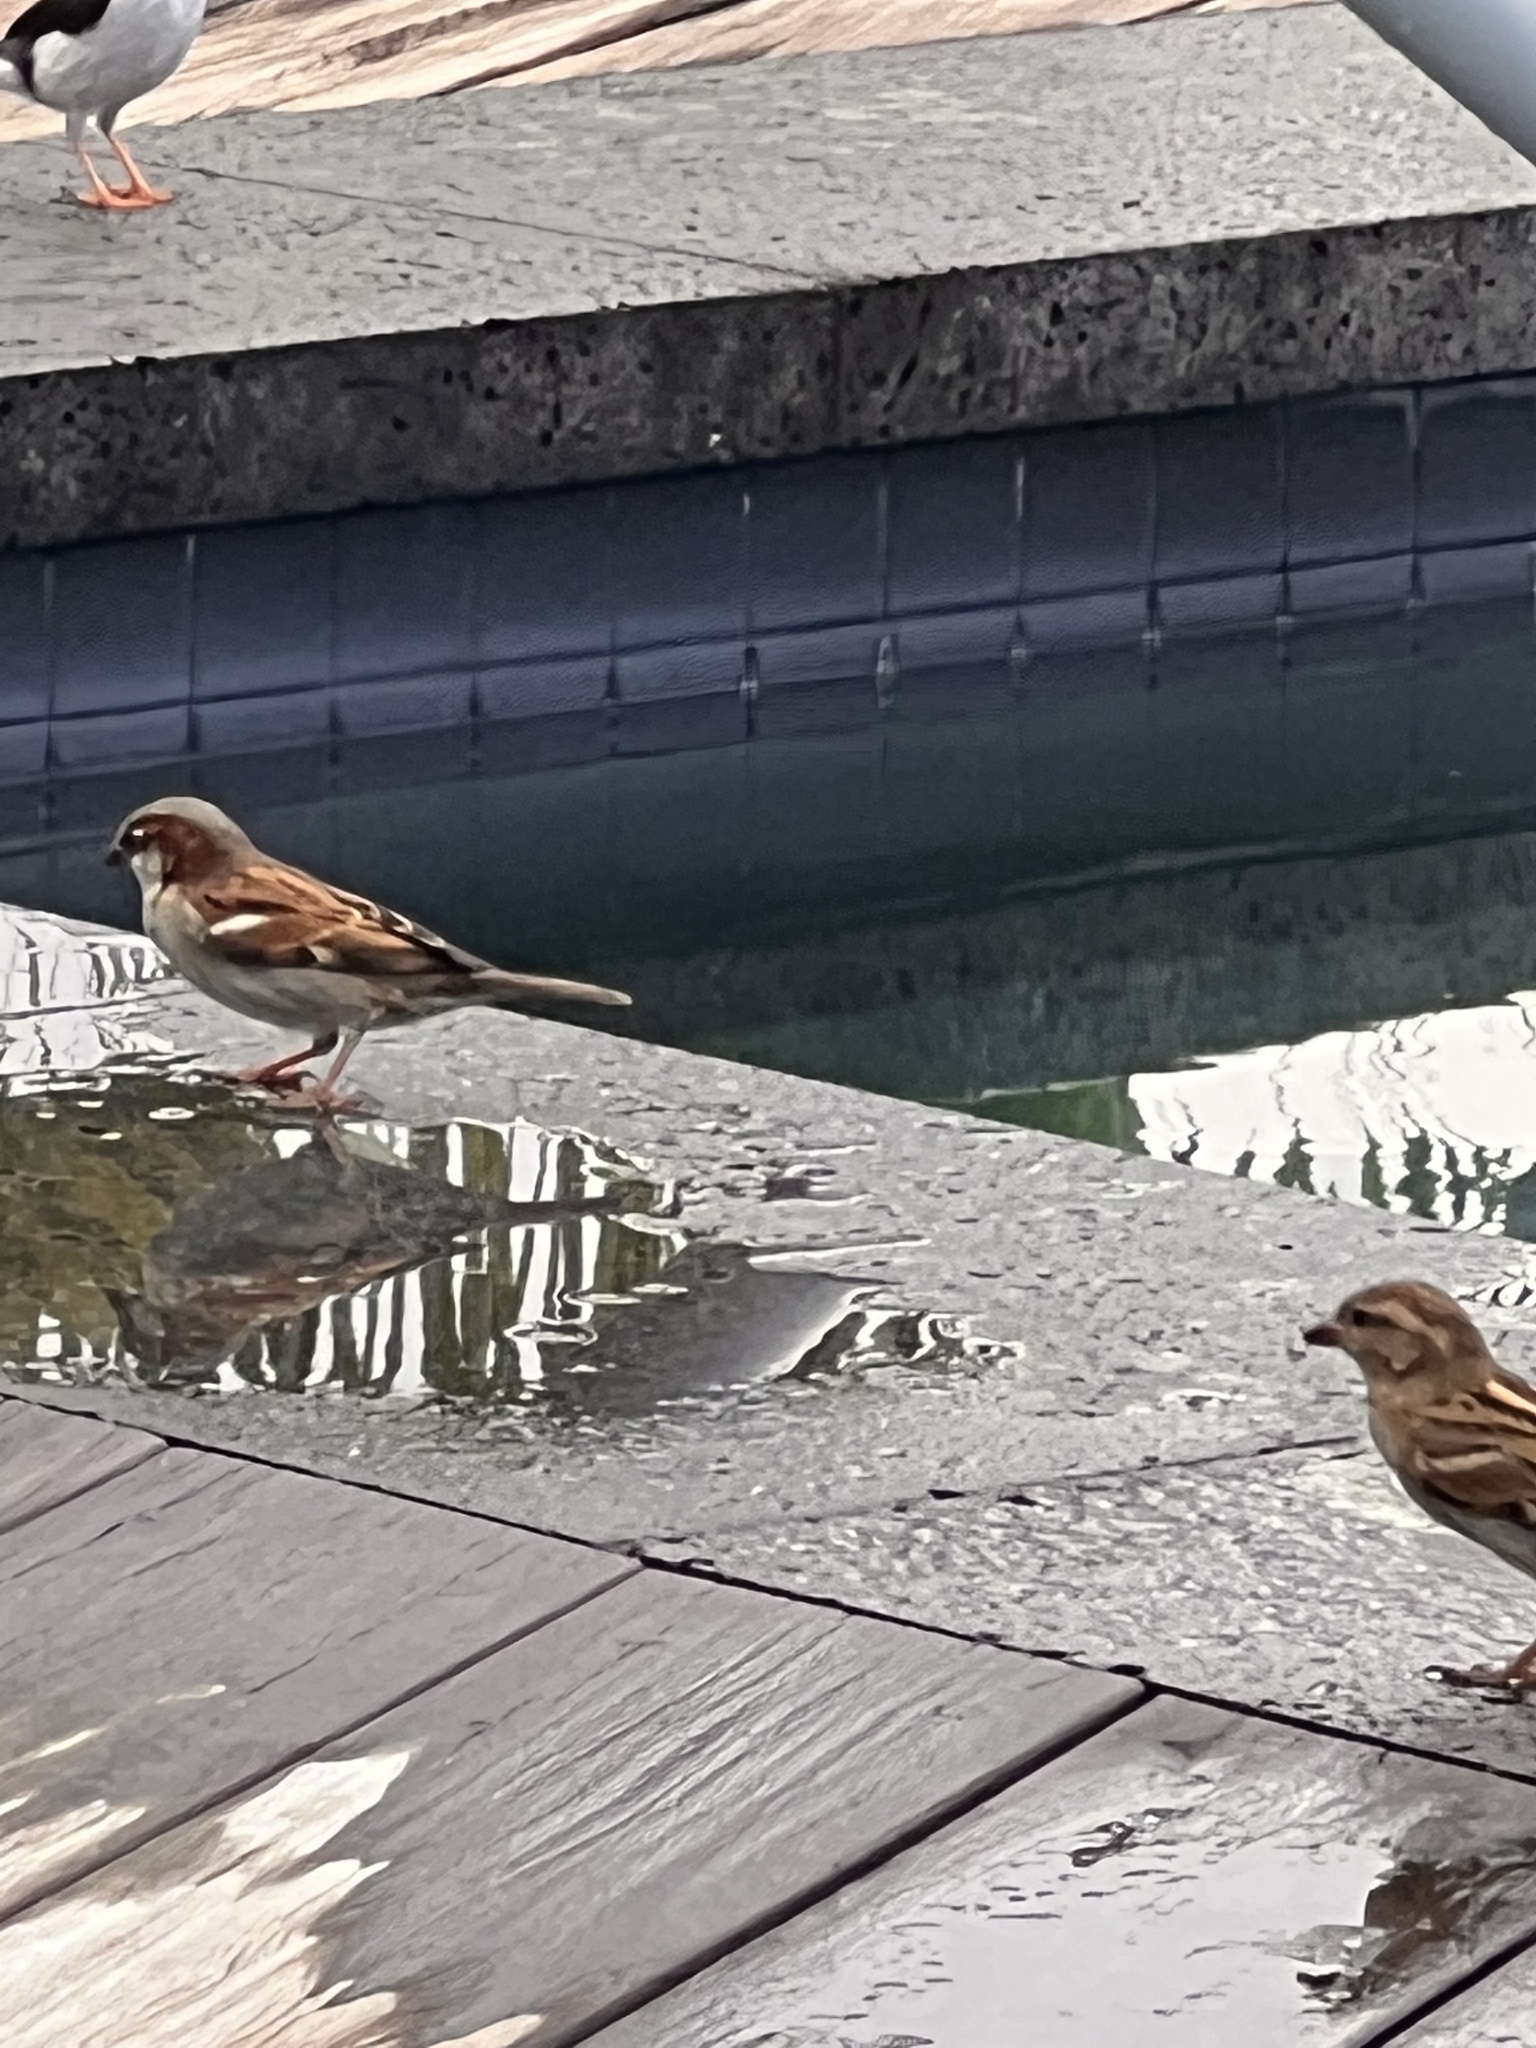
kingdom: Animalia
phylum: Chordata
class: Aves
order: Passeriformes
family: Passeridae
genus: Passer
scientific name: Passer domesticus
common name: House sparrow
